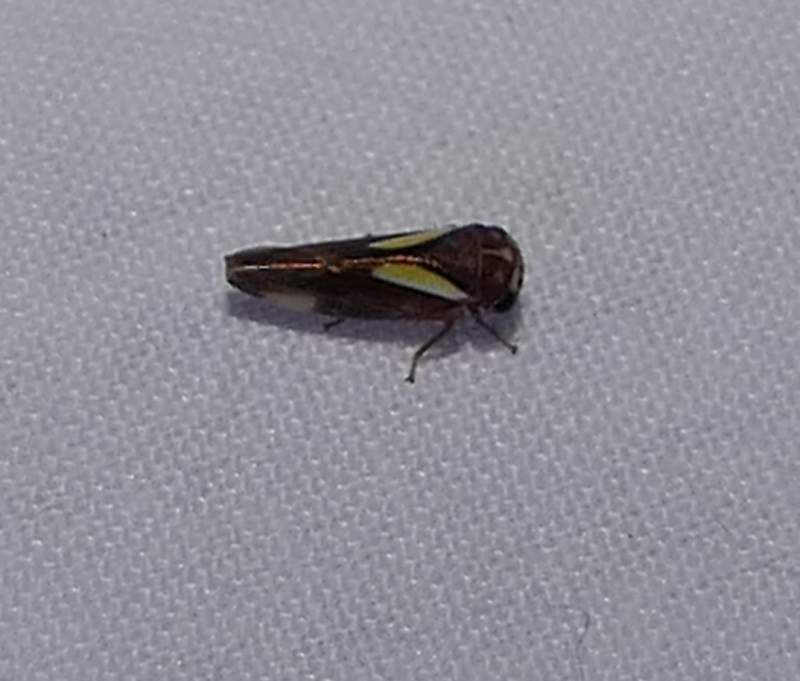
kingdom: Animalia
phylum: Arthropoda
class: Insecta
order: Hemiptera
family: Cicadellidae
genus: Balcanocerus
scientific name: Balcanocerus provancheri
